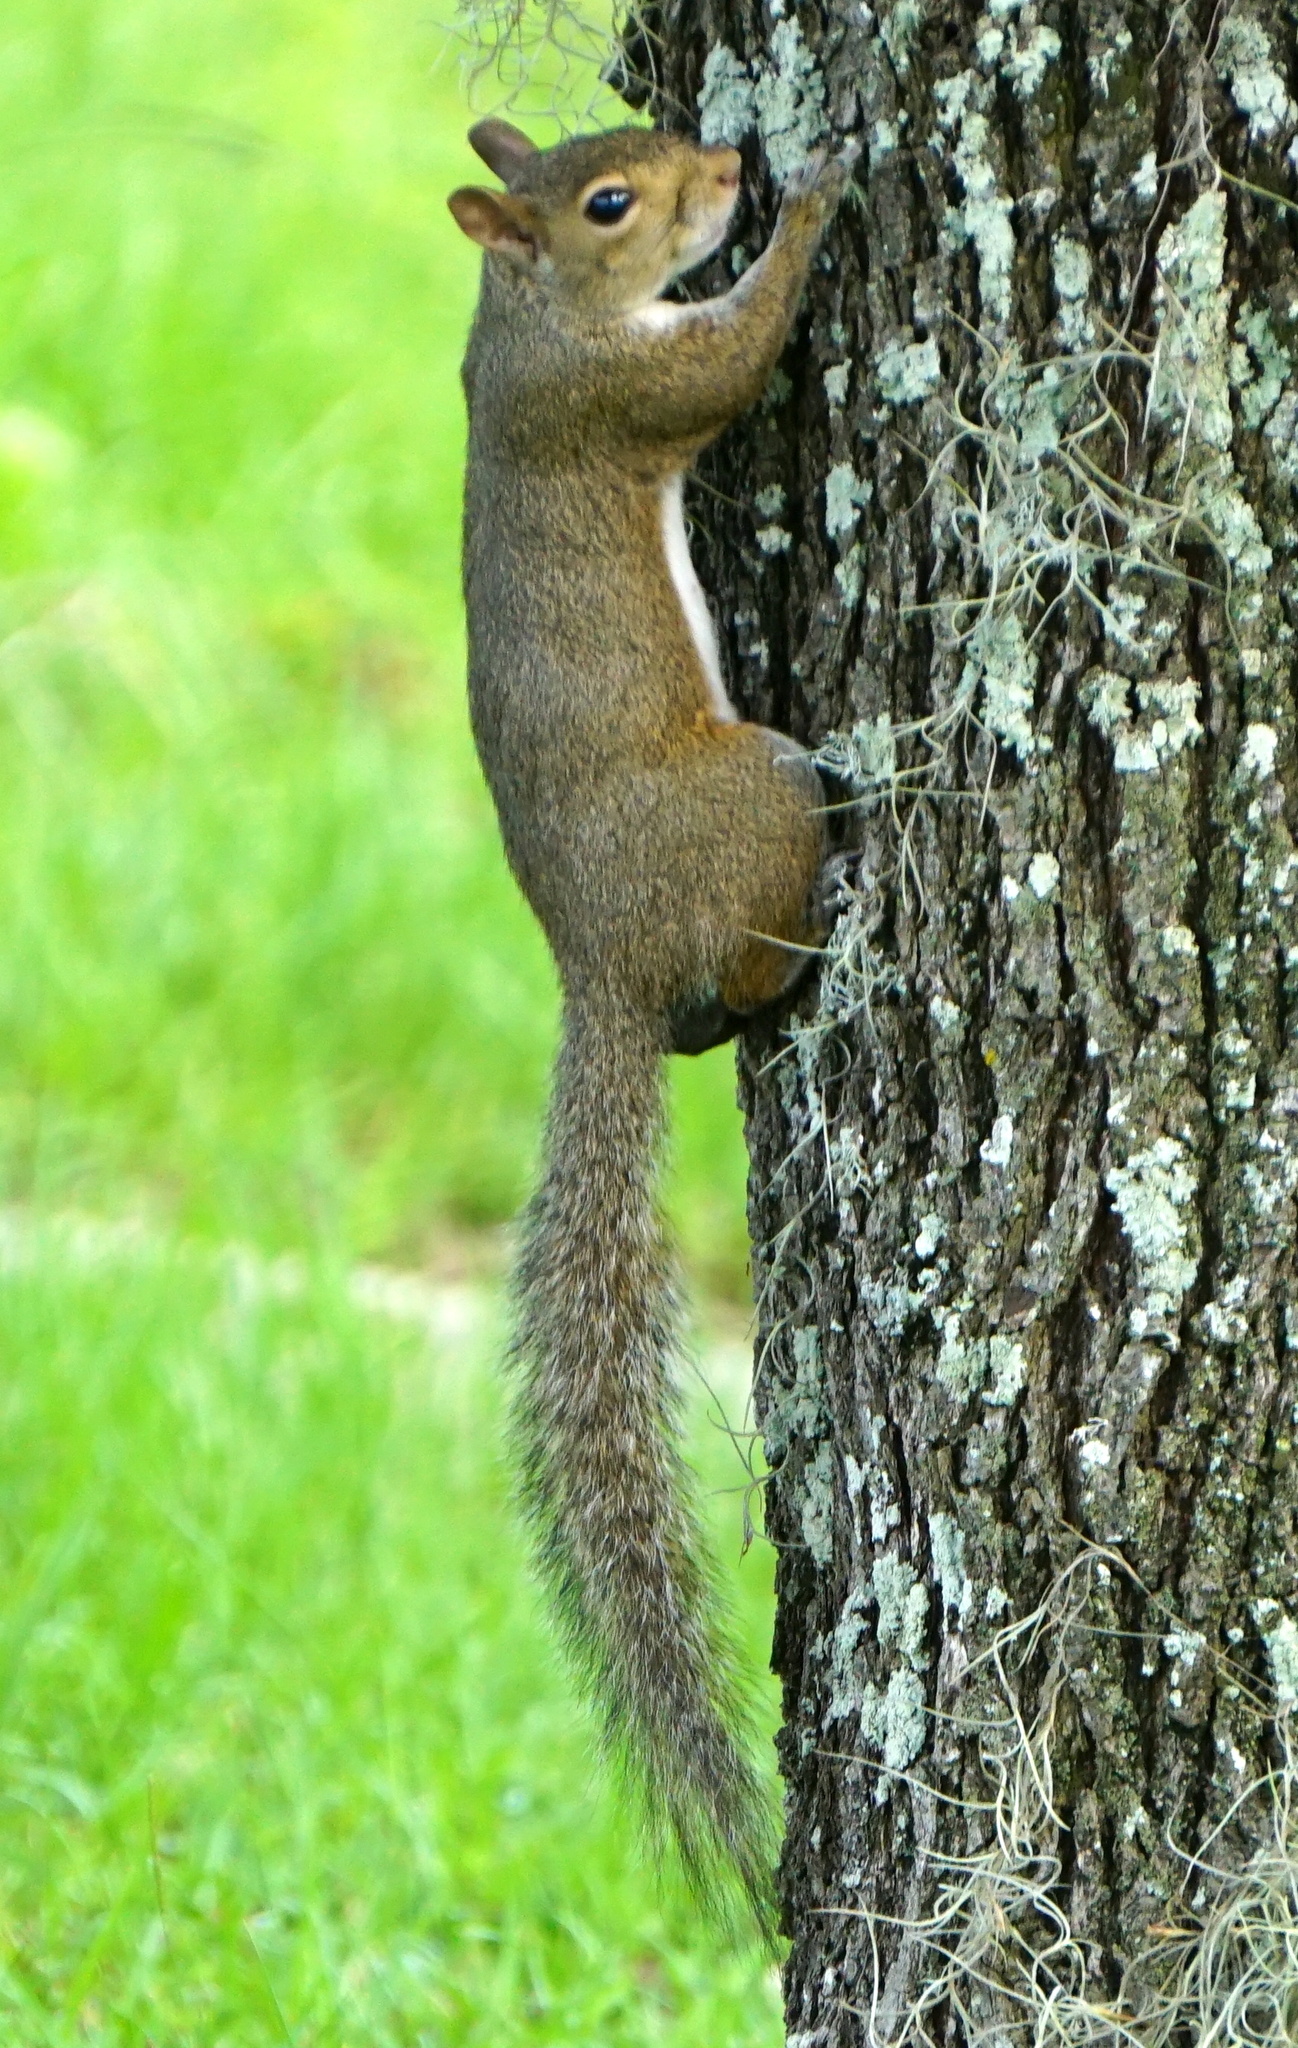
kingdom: Animalia
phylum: Chordata
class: Mammalia
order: Rodentia
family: Sciuridae
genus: Sciurus
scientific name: Sciurus carolinensis
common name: Eastern gray squirrel
